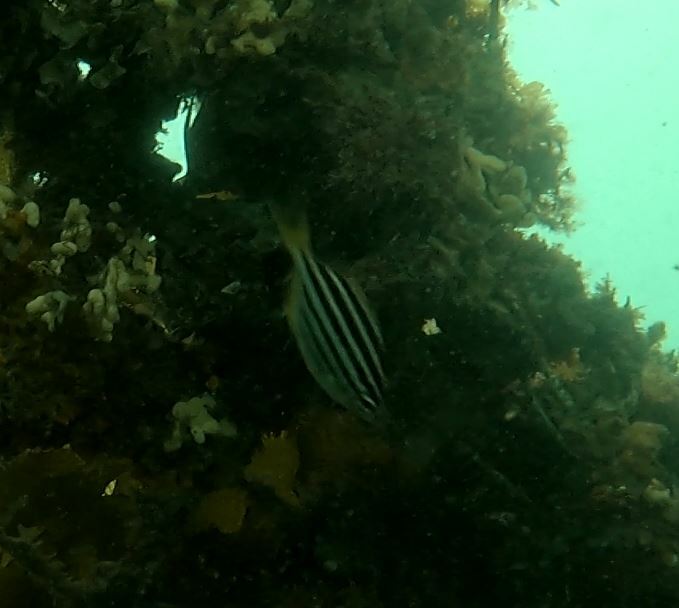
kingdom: Animalia
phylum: Chordata
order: Perciformes
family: Kyphosidae
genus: Atypichthys
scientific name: Atypichthys strigatus
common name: Australian mado
